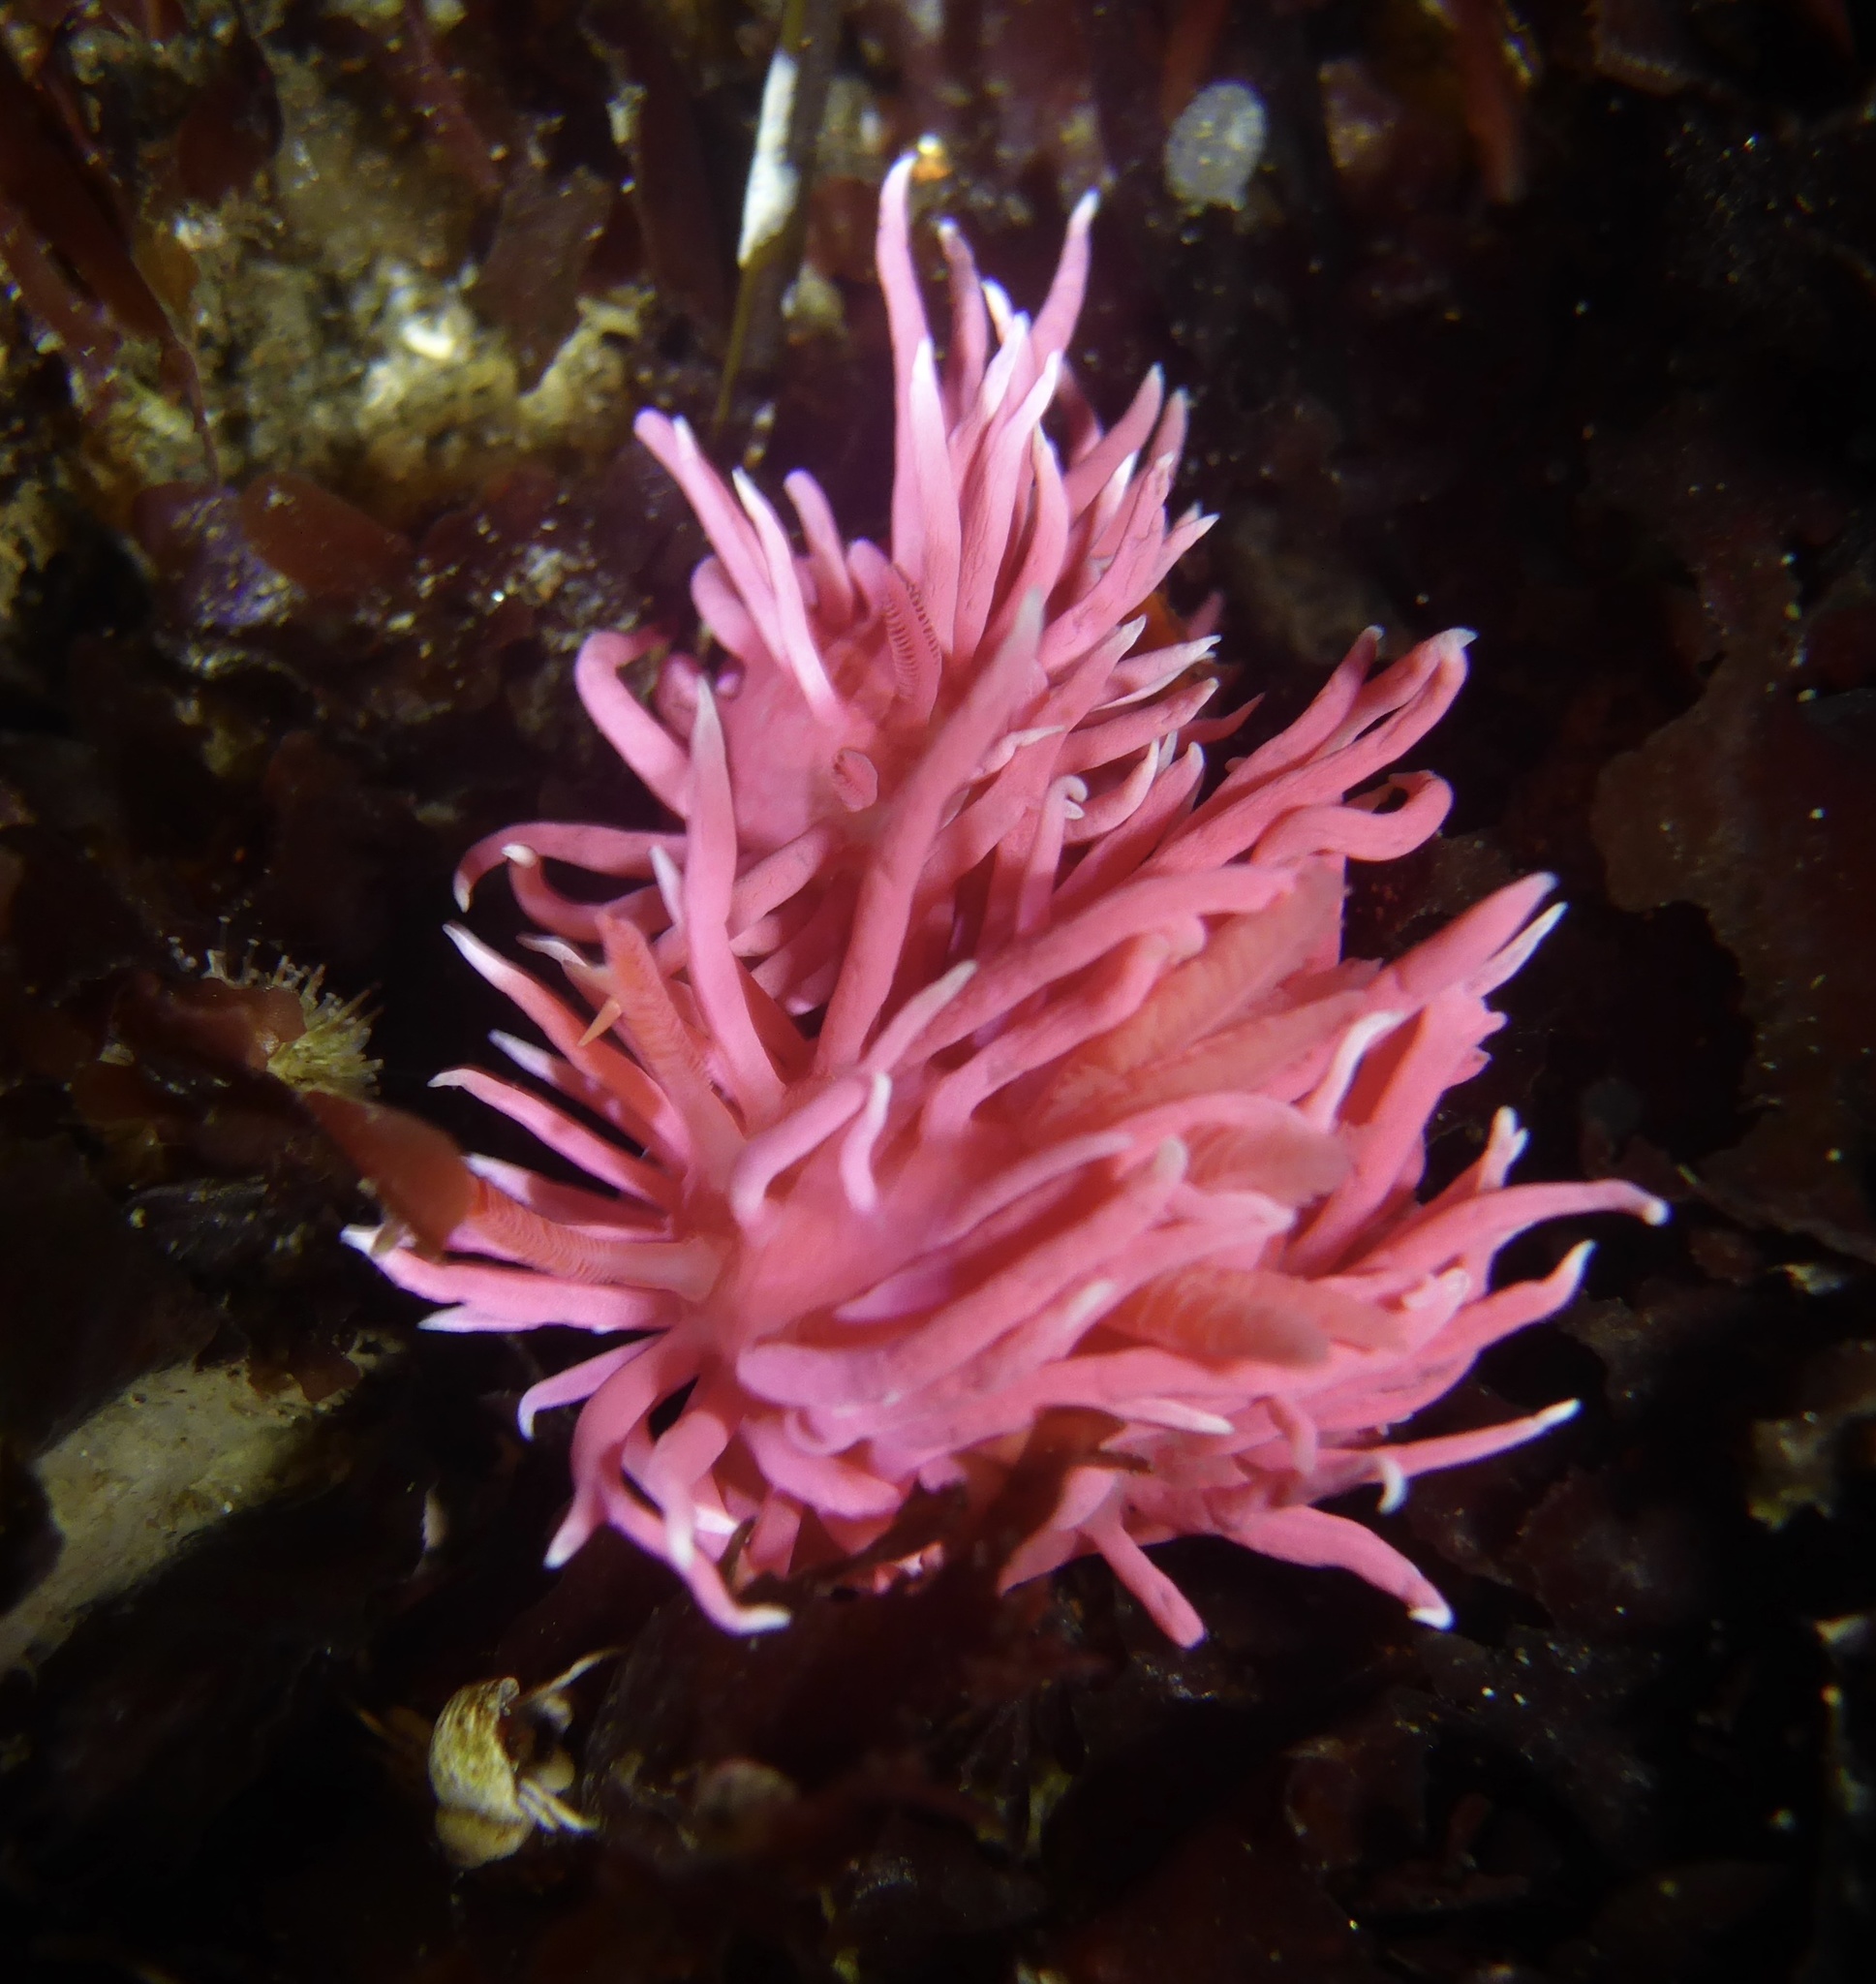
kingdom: Animalia
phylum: Mollusca
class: Gastropoda
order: Nudibranchia
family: Goniodorididae
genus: Okenia
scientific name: Okenia
